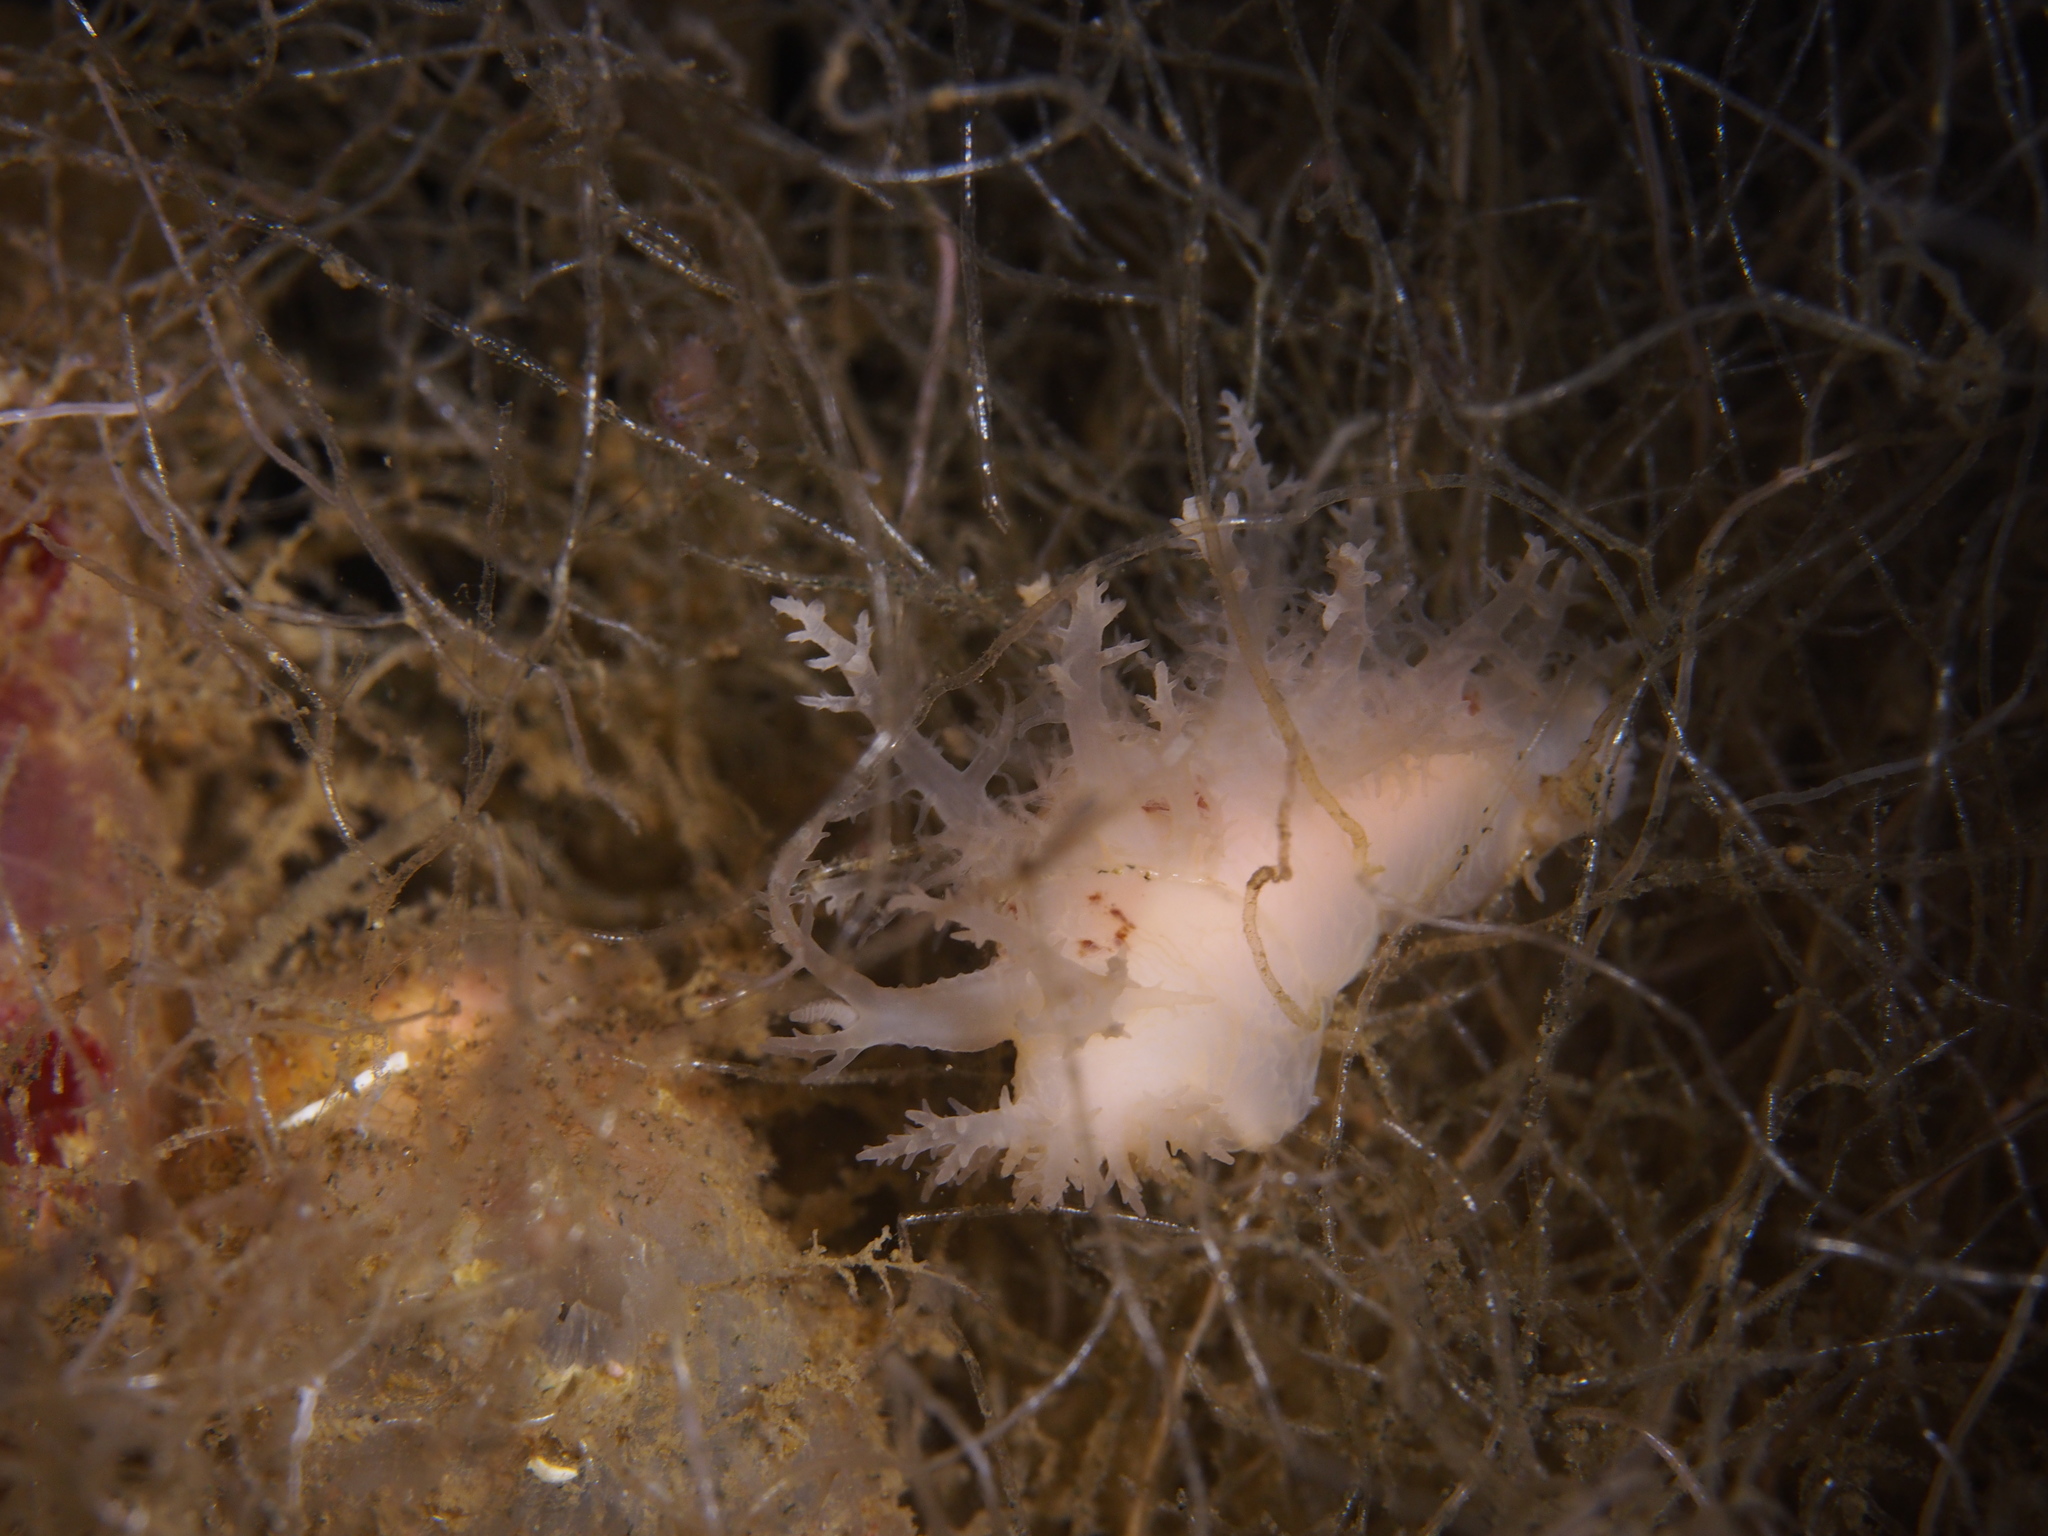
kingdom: Animalia
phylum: Mollusca
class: Gastropoda
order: Nudibranchia
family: Dendronotidae
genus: Dendronotus
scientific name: Dendronotus europaeus
